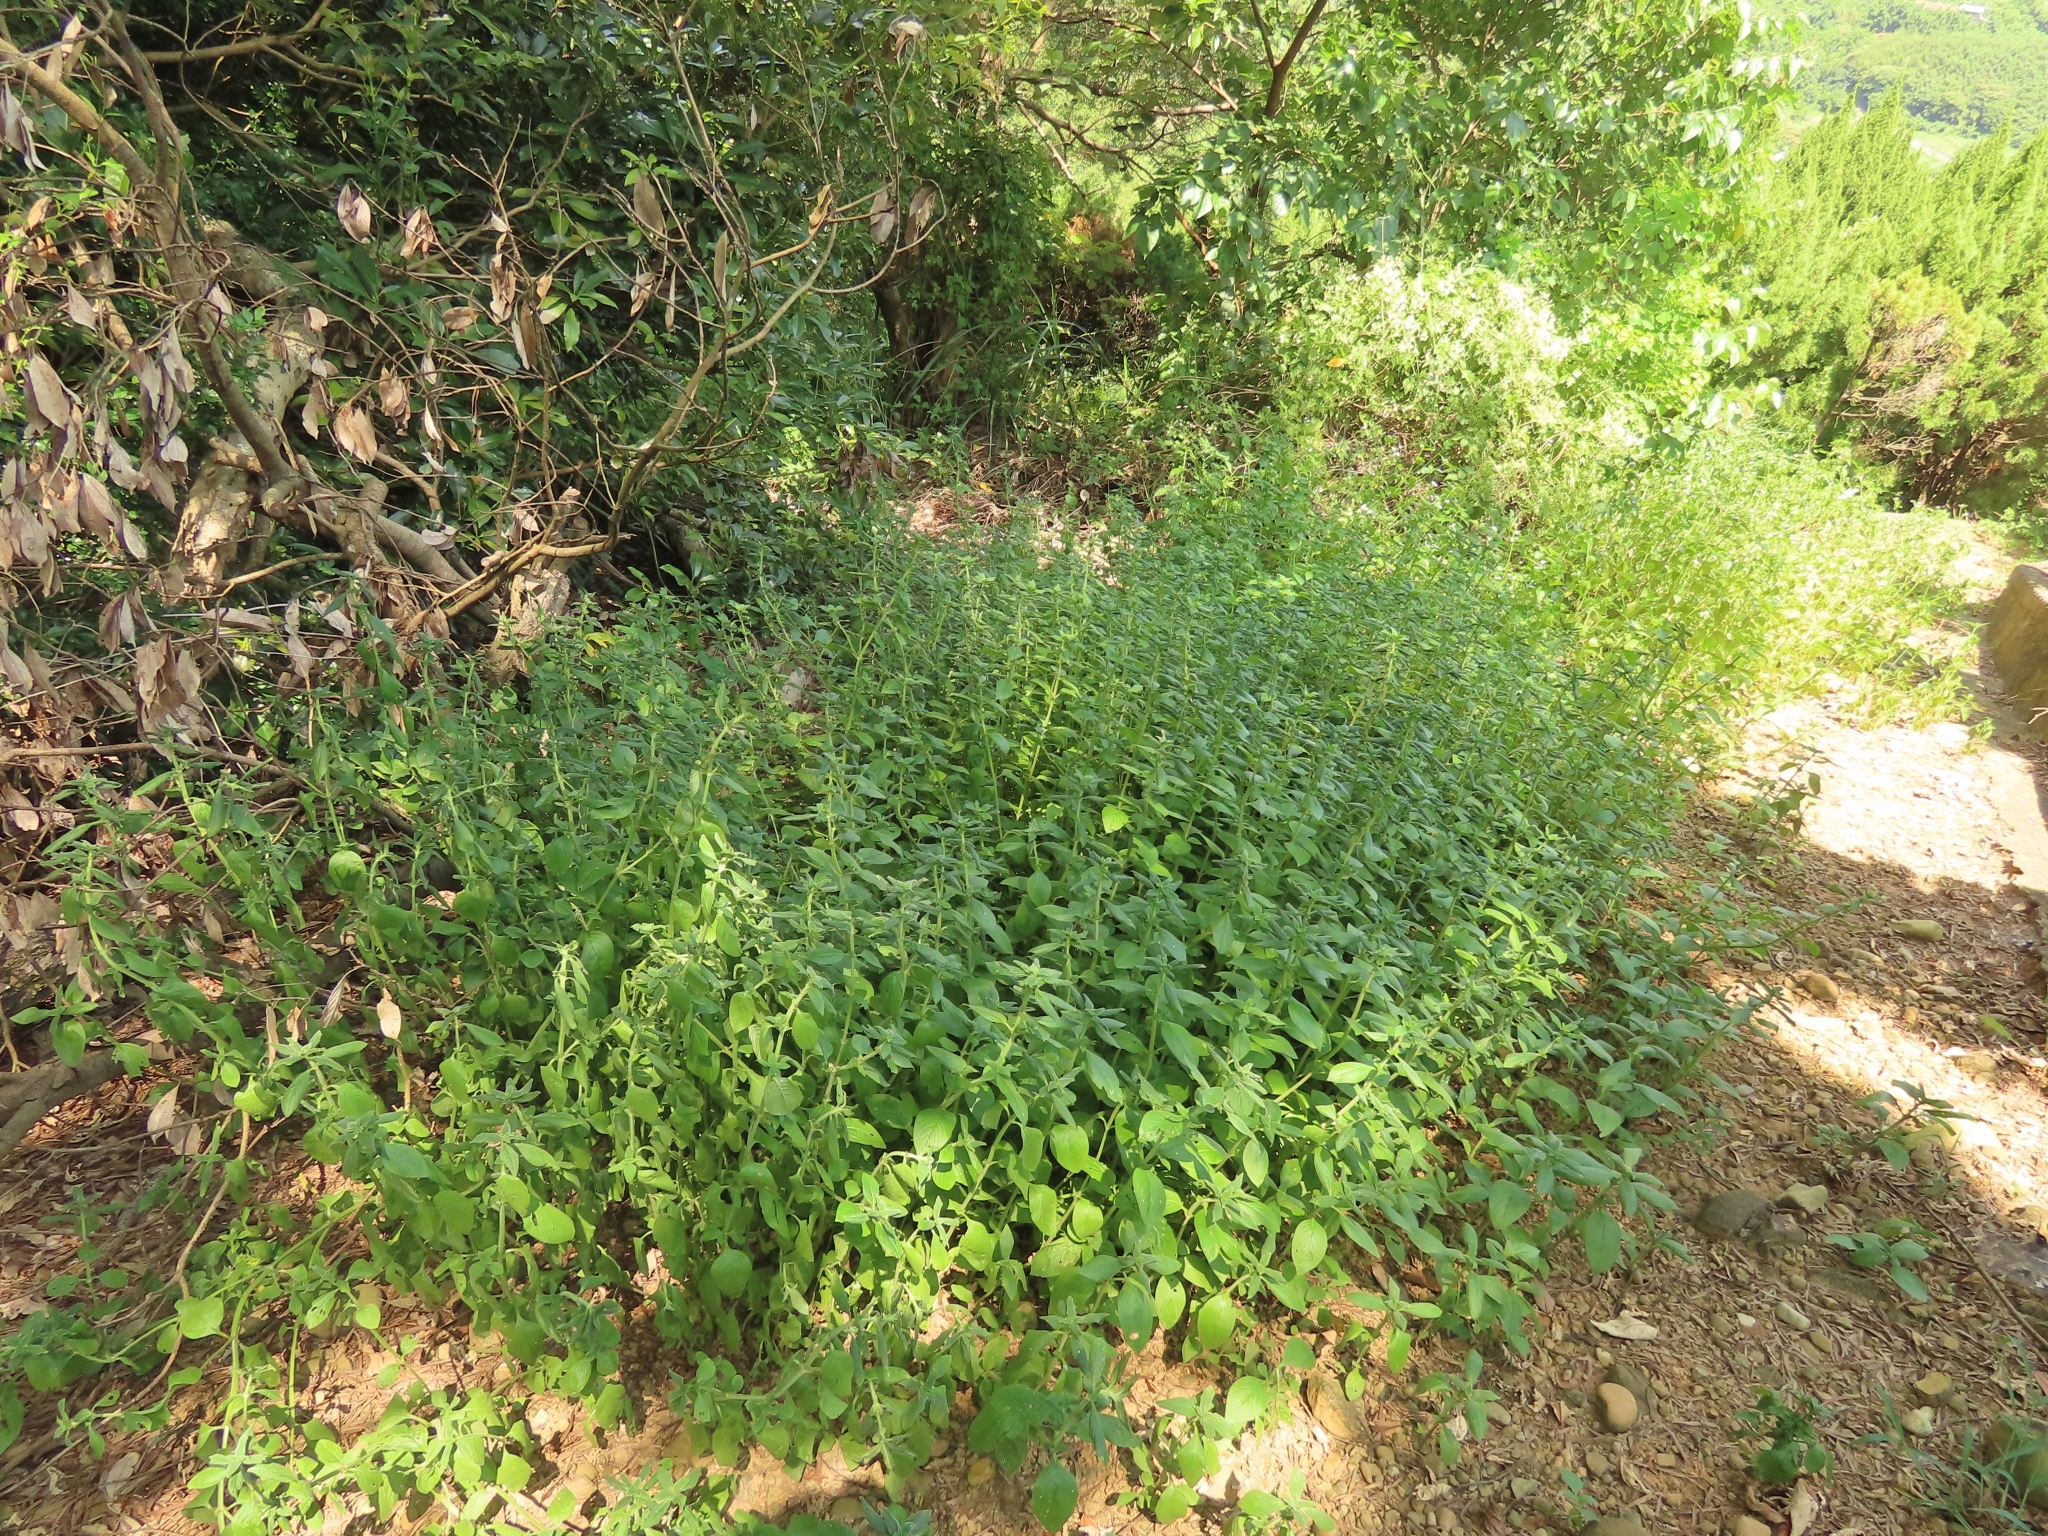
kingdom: Plantae
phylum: Tracheophyta
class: Magnoliopsida
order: Gentianales
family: Rubiaceae
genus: Spermacoce
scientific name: Spermacoce latifolia
